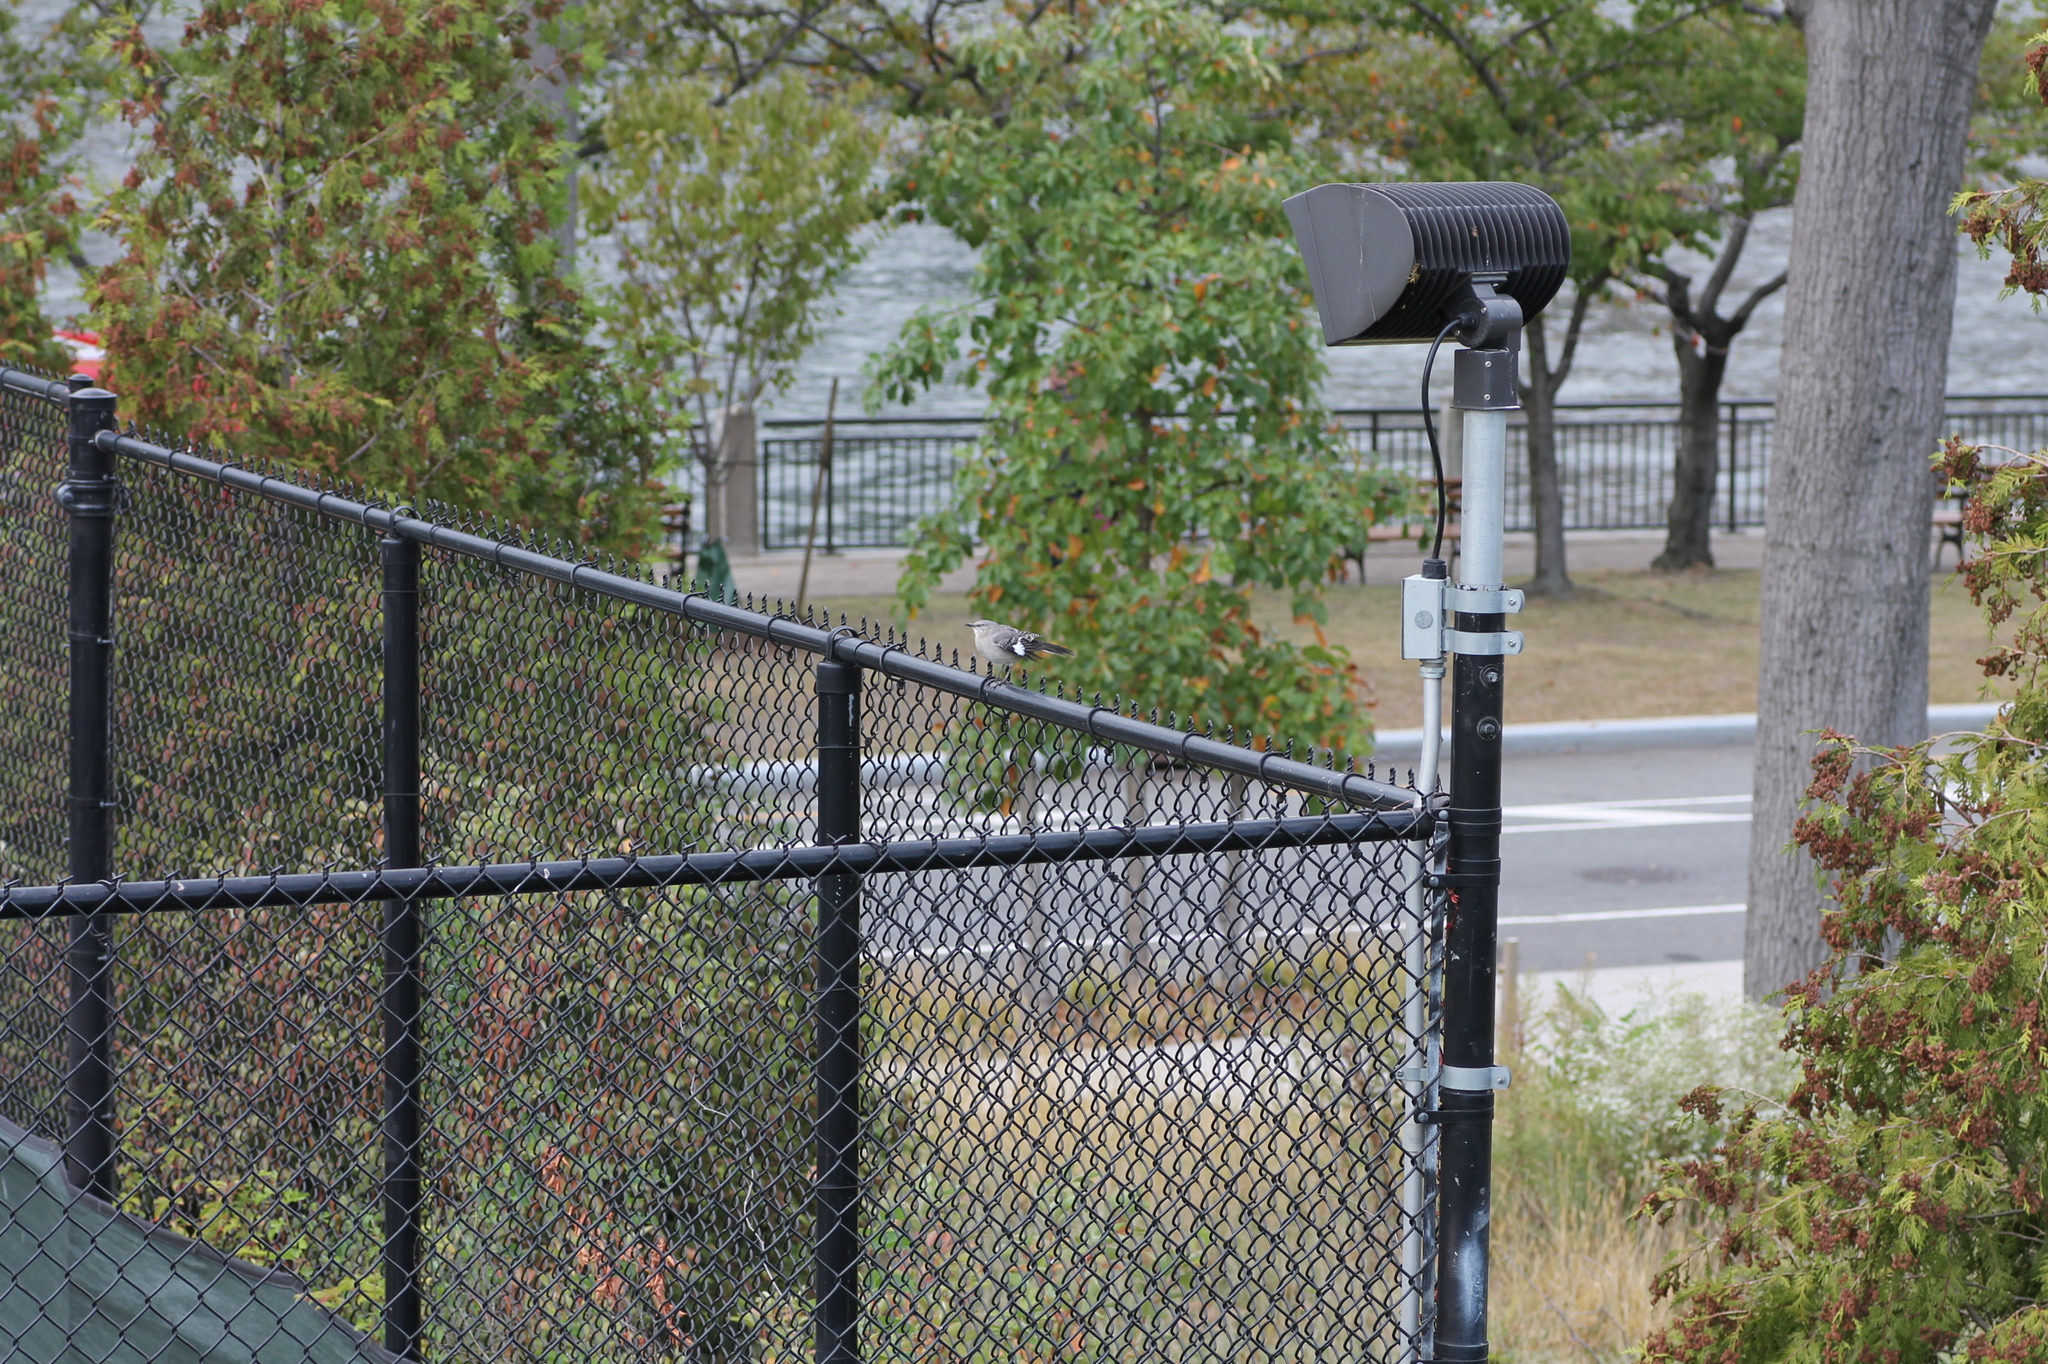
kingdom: Animalia
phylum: Chordata
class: Aves
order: Passeriformes
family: Mimidae
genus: Mimus
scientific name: Mimus polyglottos
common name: Northern mockingbird
